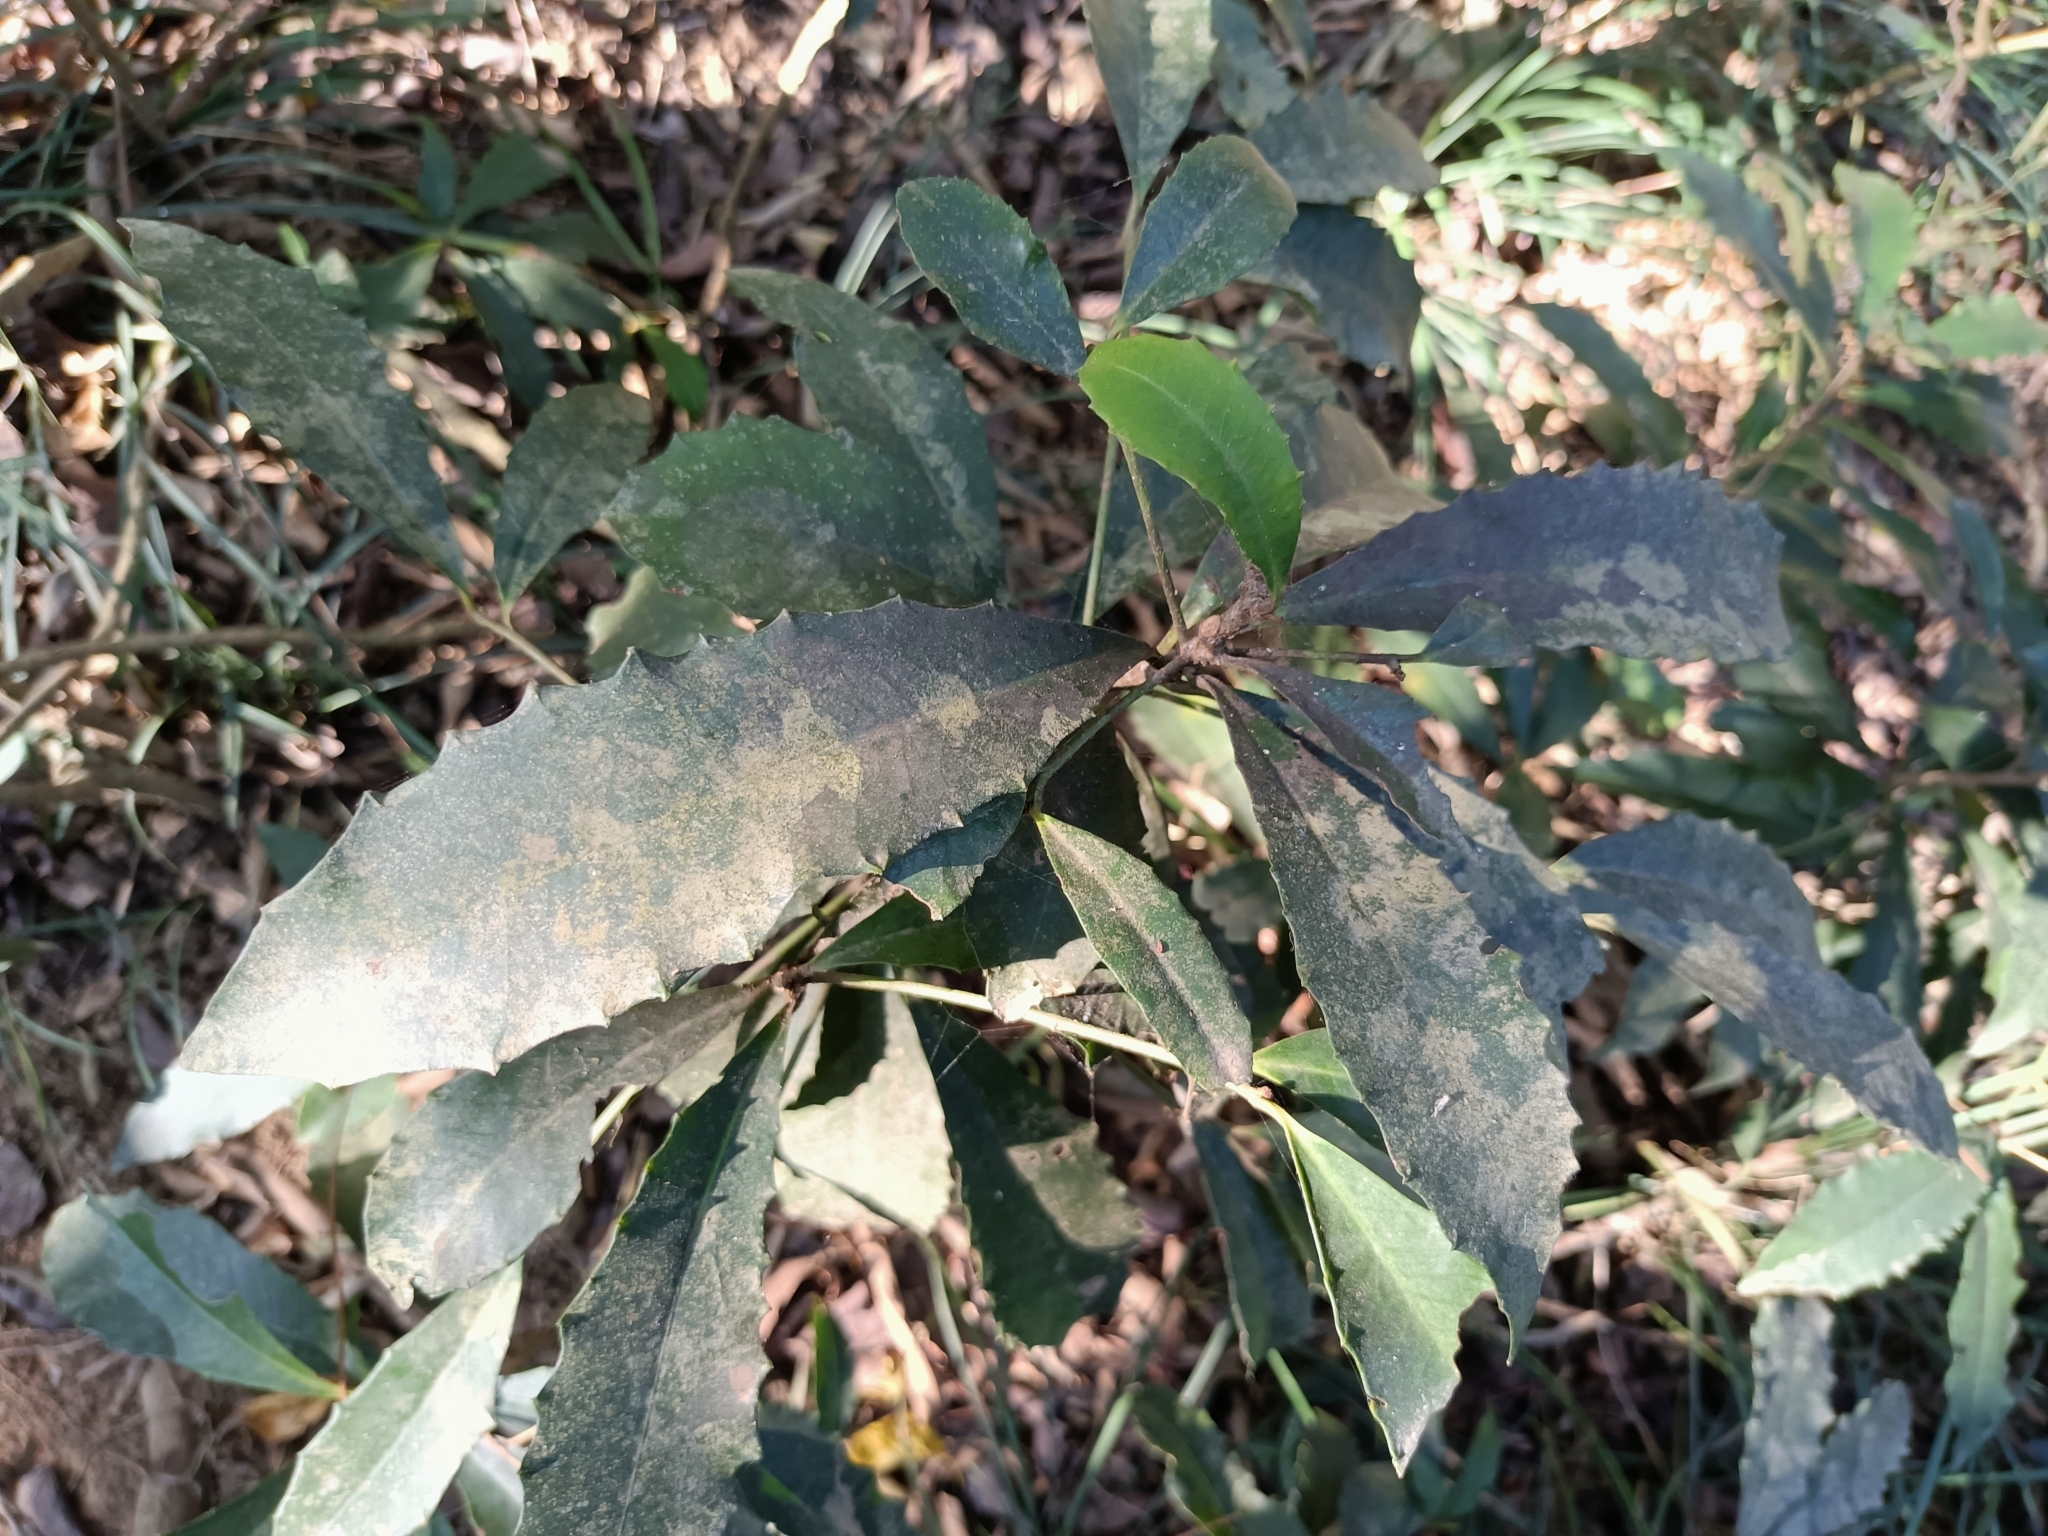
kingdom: Plantae
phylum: Tracheophyta
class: Magnoliopsida
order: Ericales
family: Primulaceae
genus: Ardisia
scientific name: Ardisia cornudentata
